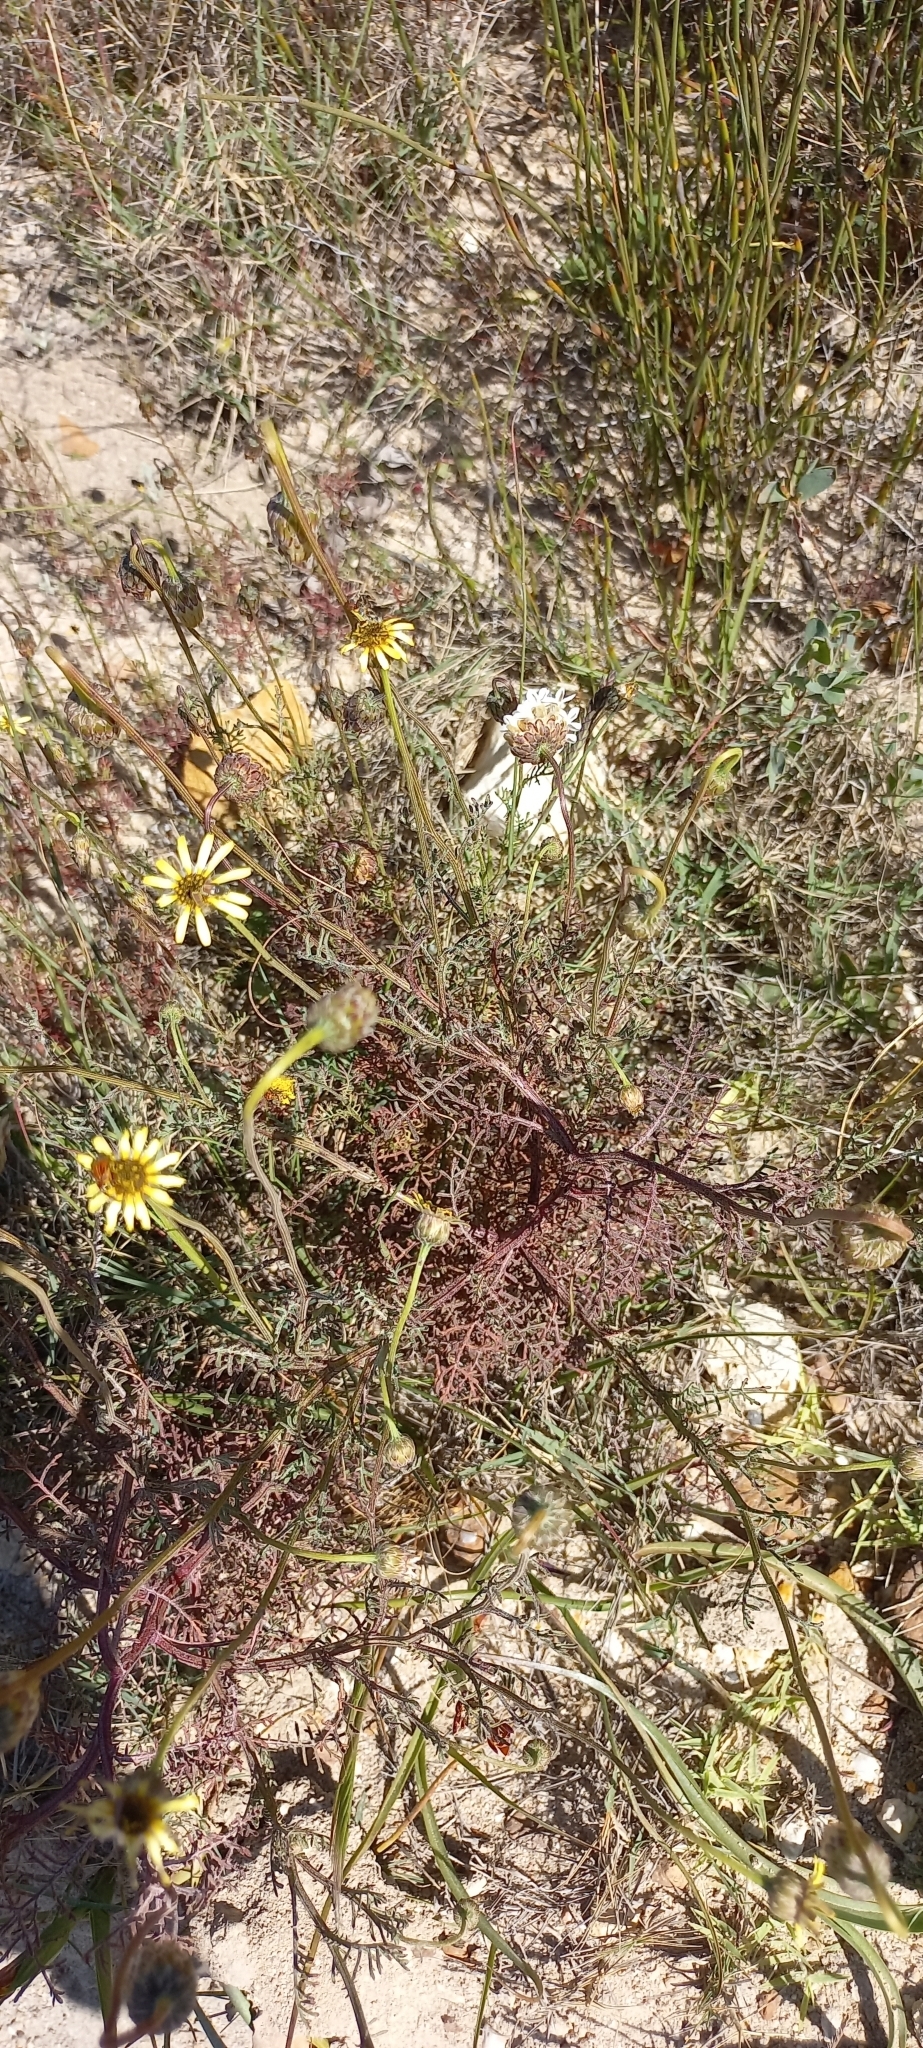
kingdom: Plantae
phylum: Tracheophyta
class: Magnoliopsida
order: Asterales
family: Asteraceae
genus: Ursinia
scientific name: Ursinia anthemoides
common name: Ursinia
